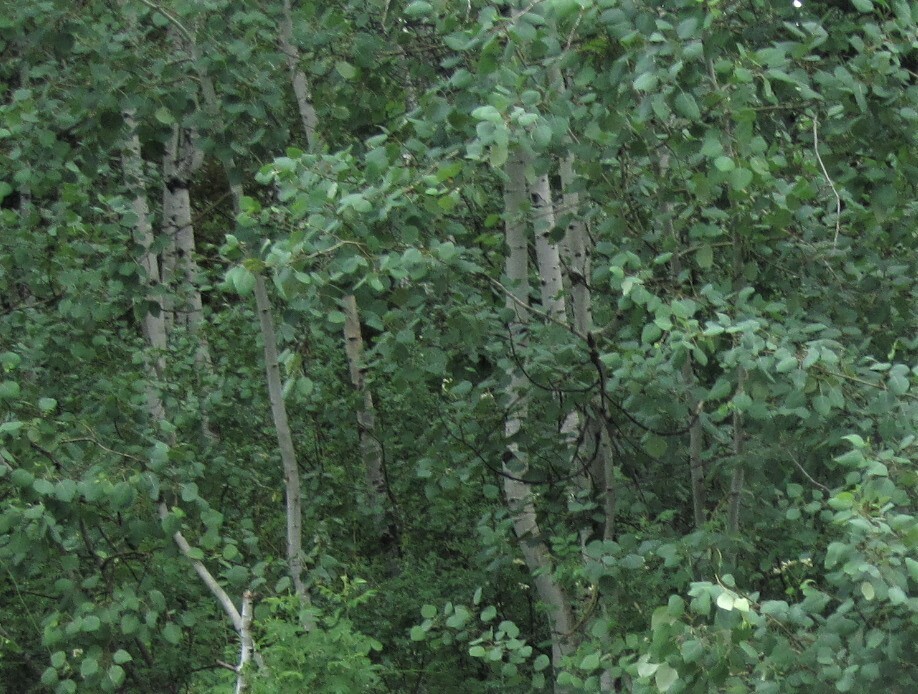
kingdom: Plantae
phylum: Tracheophyta
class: Magnoliopsida
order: Malpighiales
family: Salicaceae
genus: Populus
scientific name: Populus tremuloides
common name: Quaking aspen
